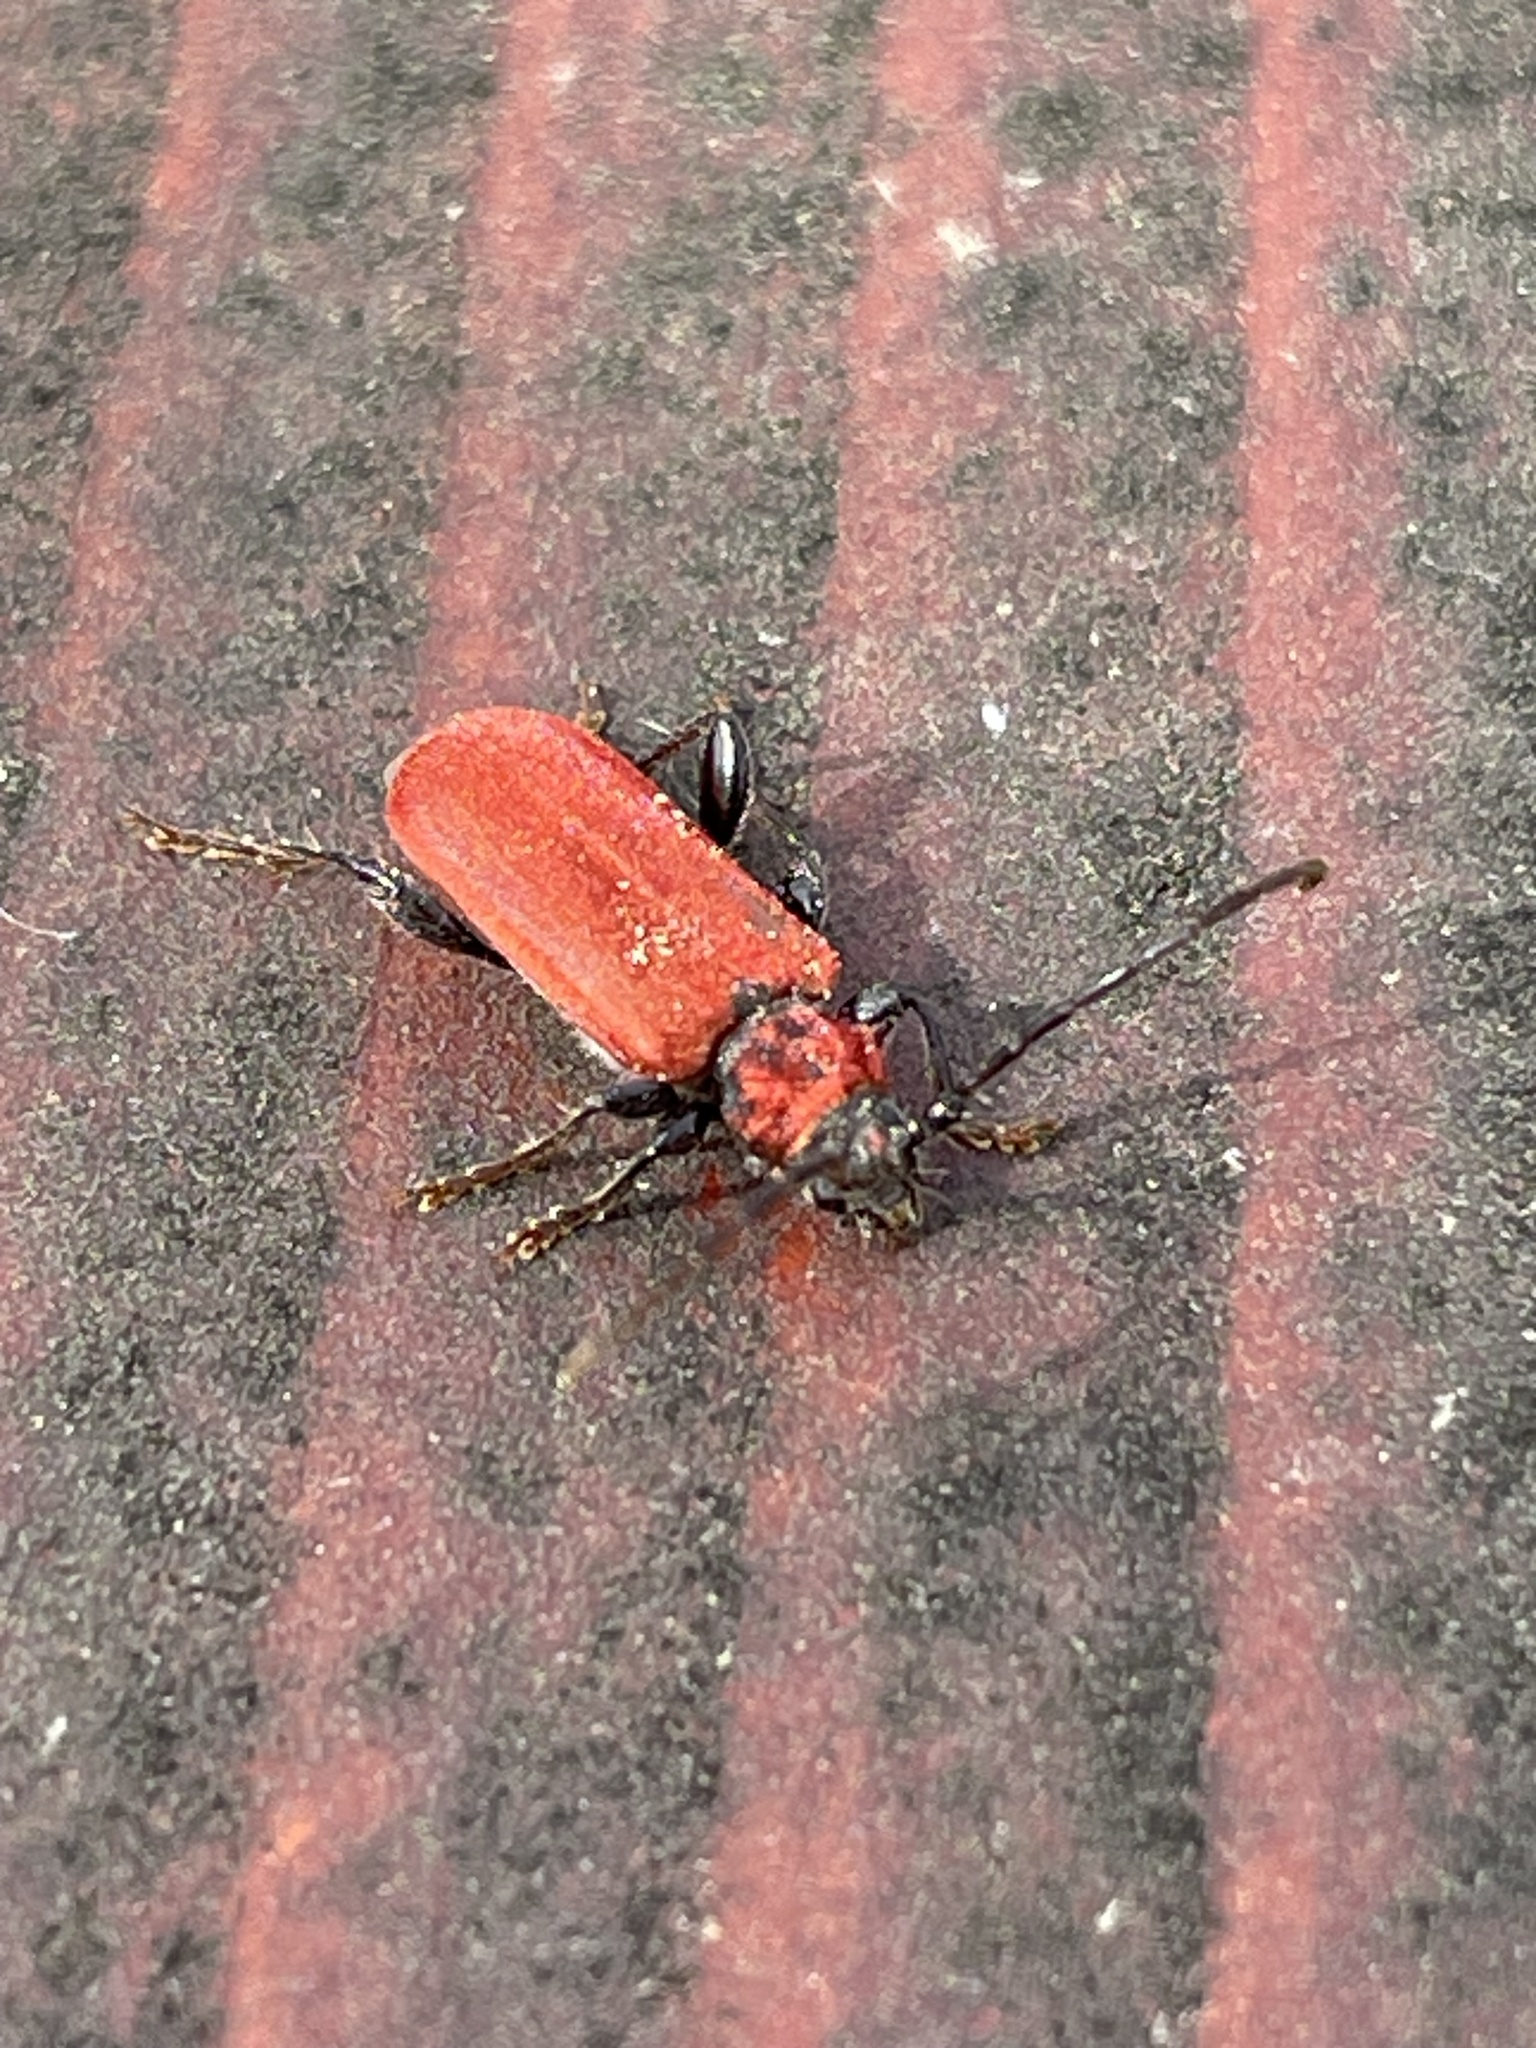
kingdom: Animalia
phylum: Arthropoda
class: Insecta
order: Coleoptera
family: Cerambycidae
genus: Pyrrhidium
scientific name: Pyrrhidium sanguineum
